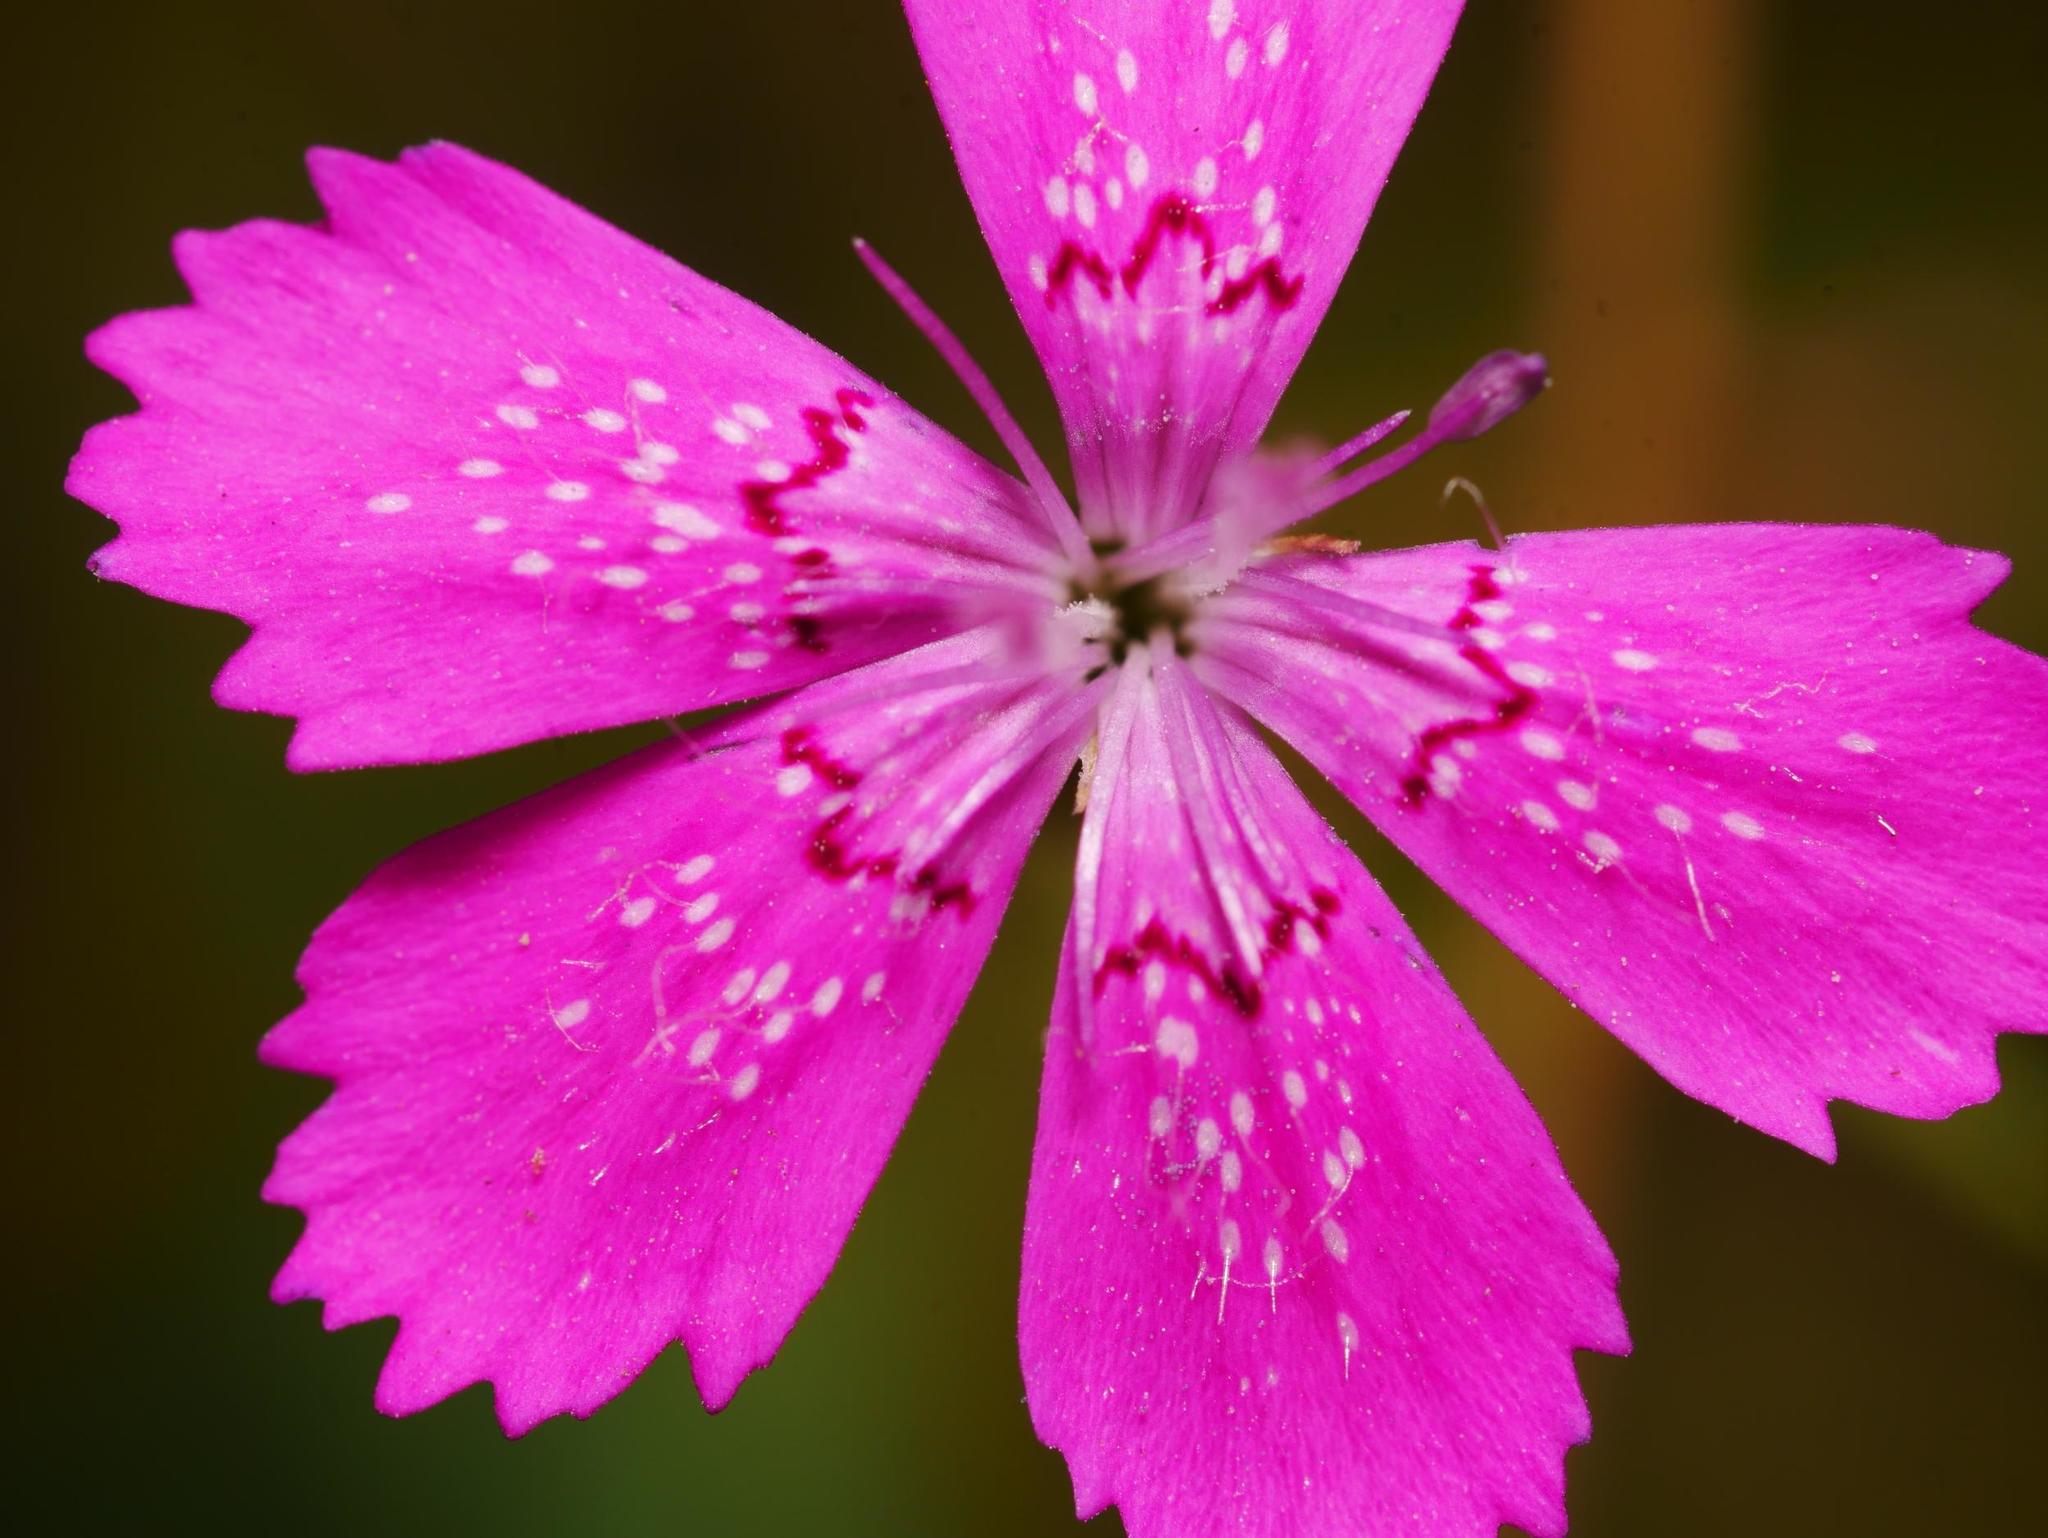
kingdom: Plantae
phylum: Tracheophyta
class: Magnoliopsida
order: Caryophyllales
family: Caryophyllaceae
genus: Dianthus
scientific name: Dianthus deltoides
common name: Maiden pink
